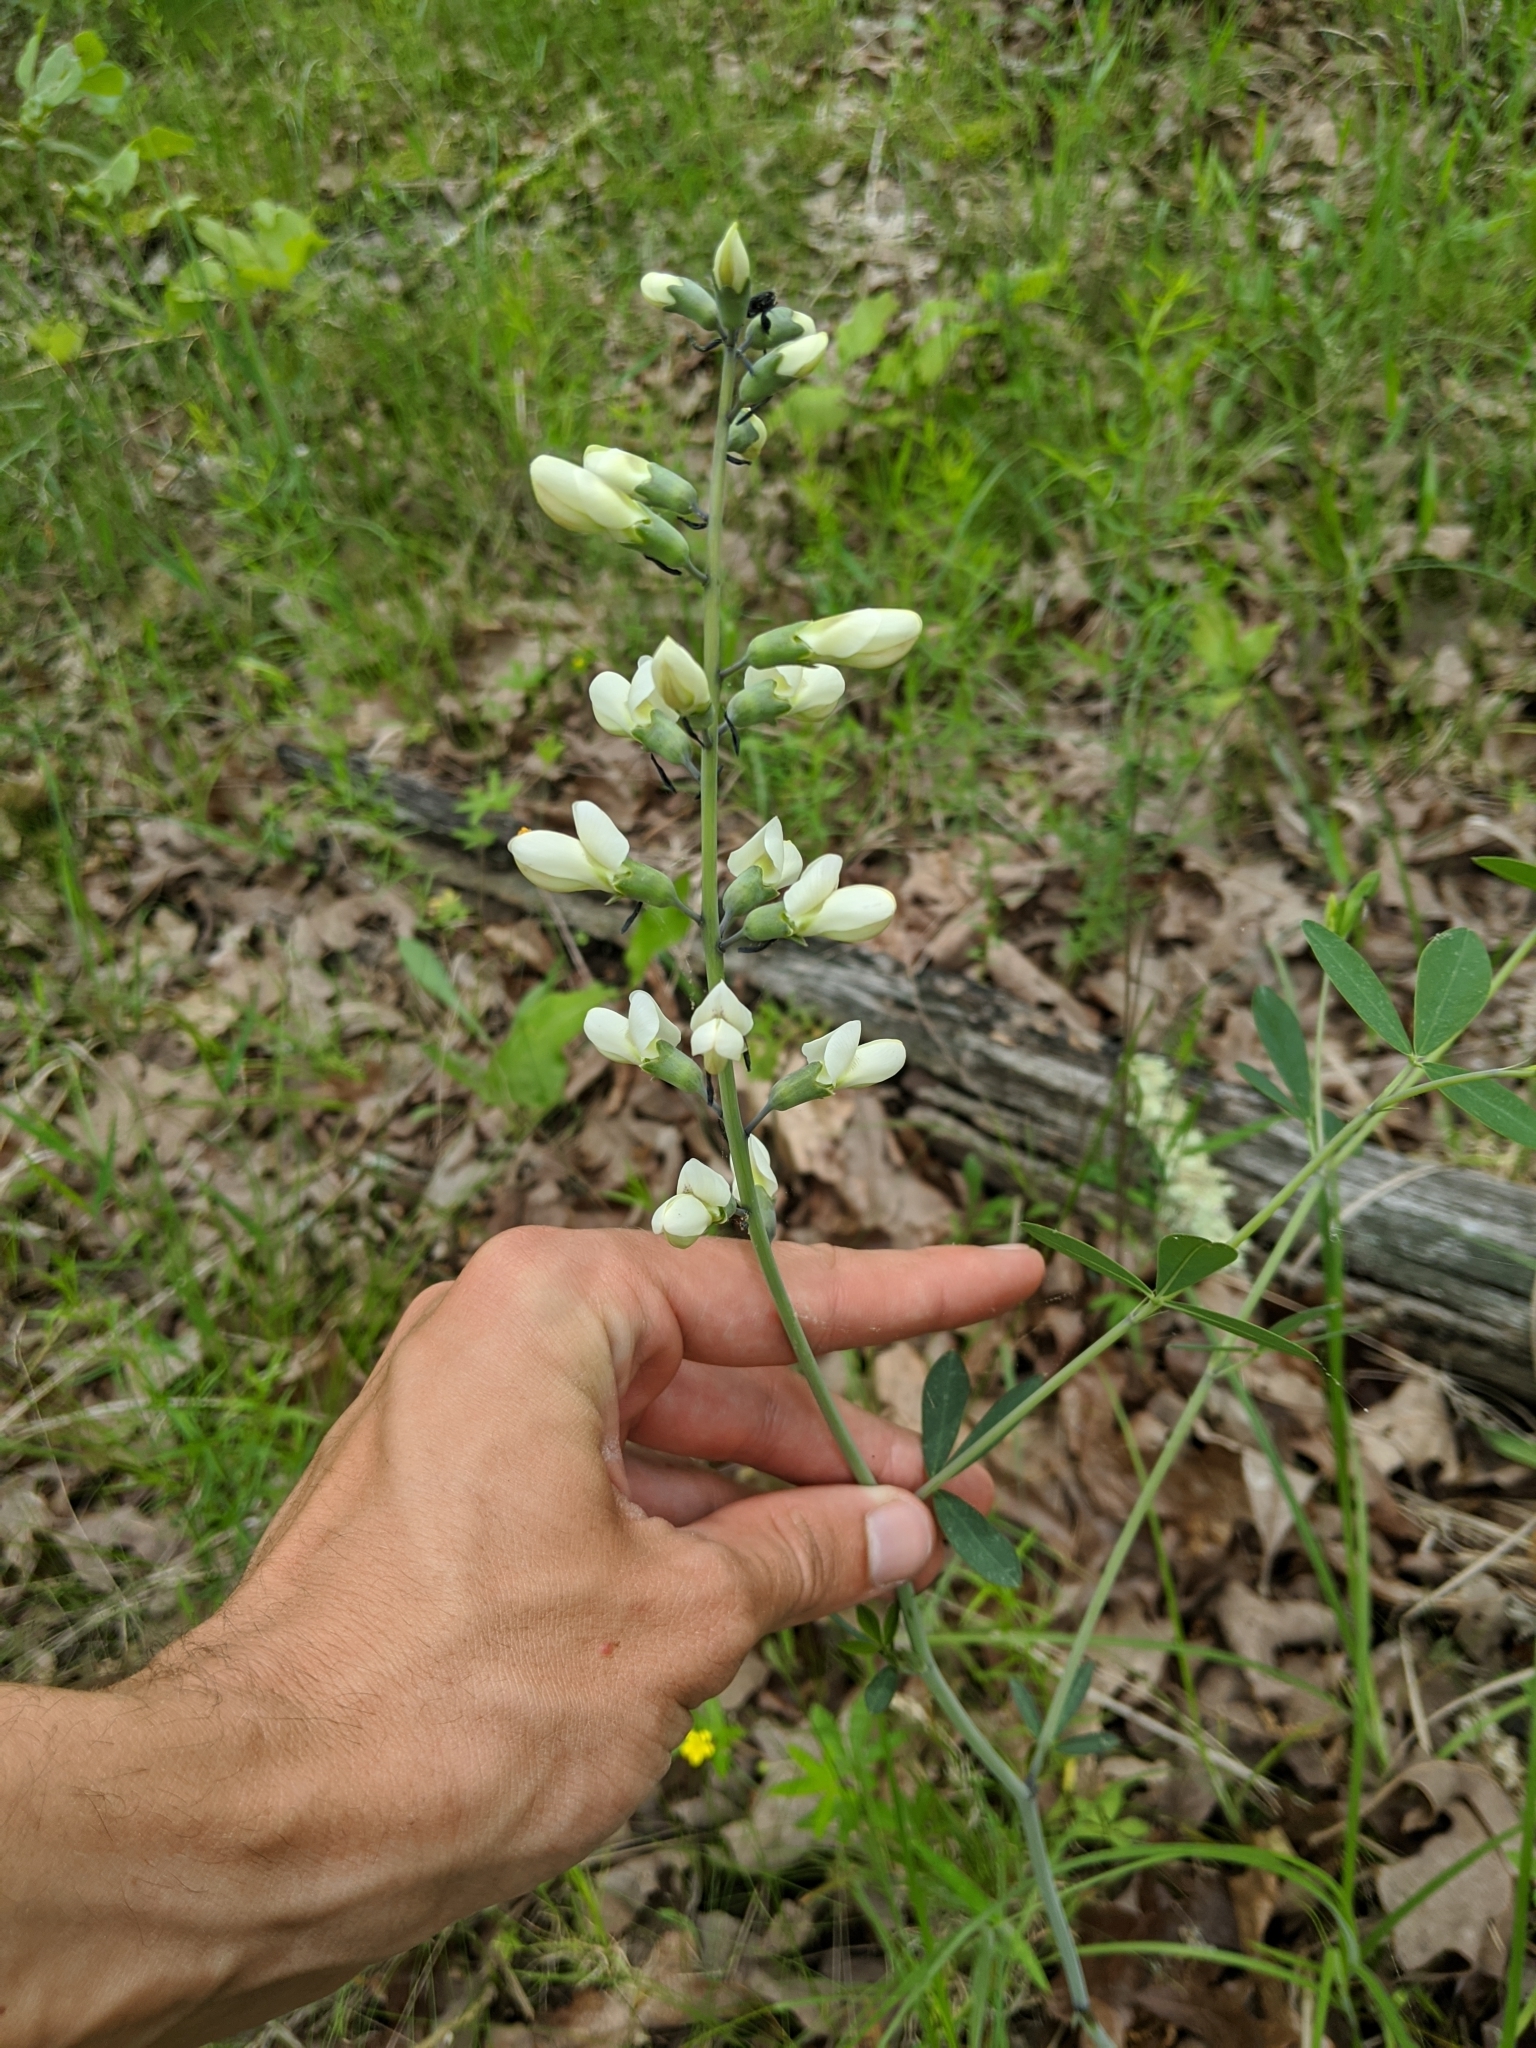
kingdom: Plantae
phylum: Tracheophyta
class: Magnoliopsida
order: Fabales
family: Fabaceae
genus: Baptisia
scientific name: Baptisia alba
